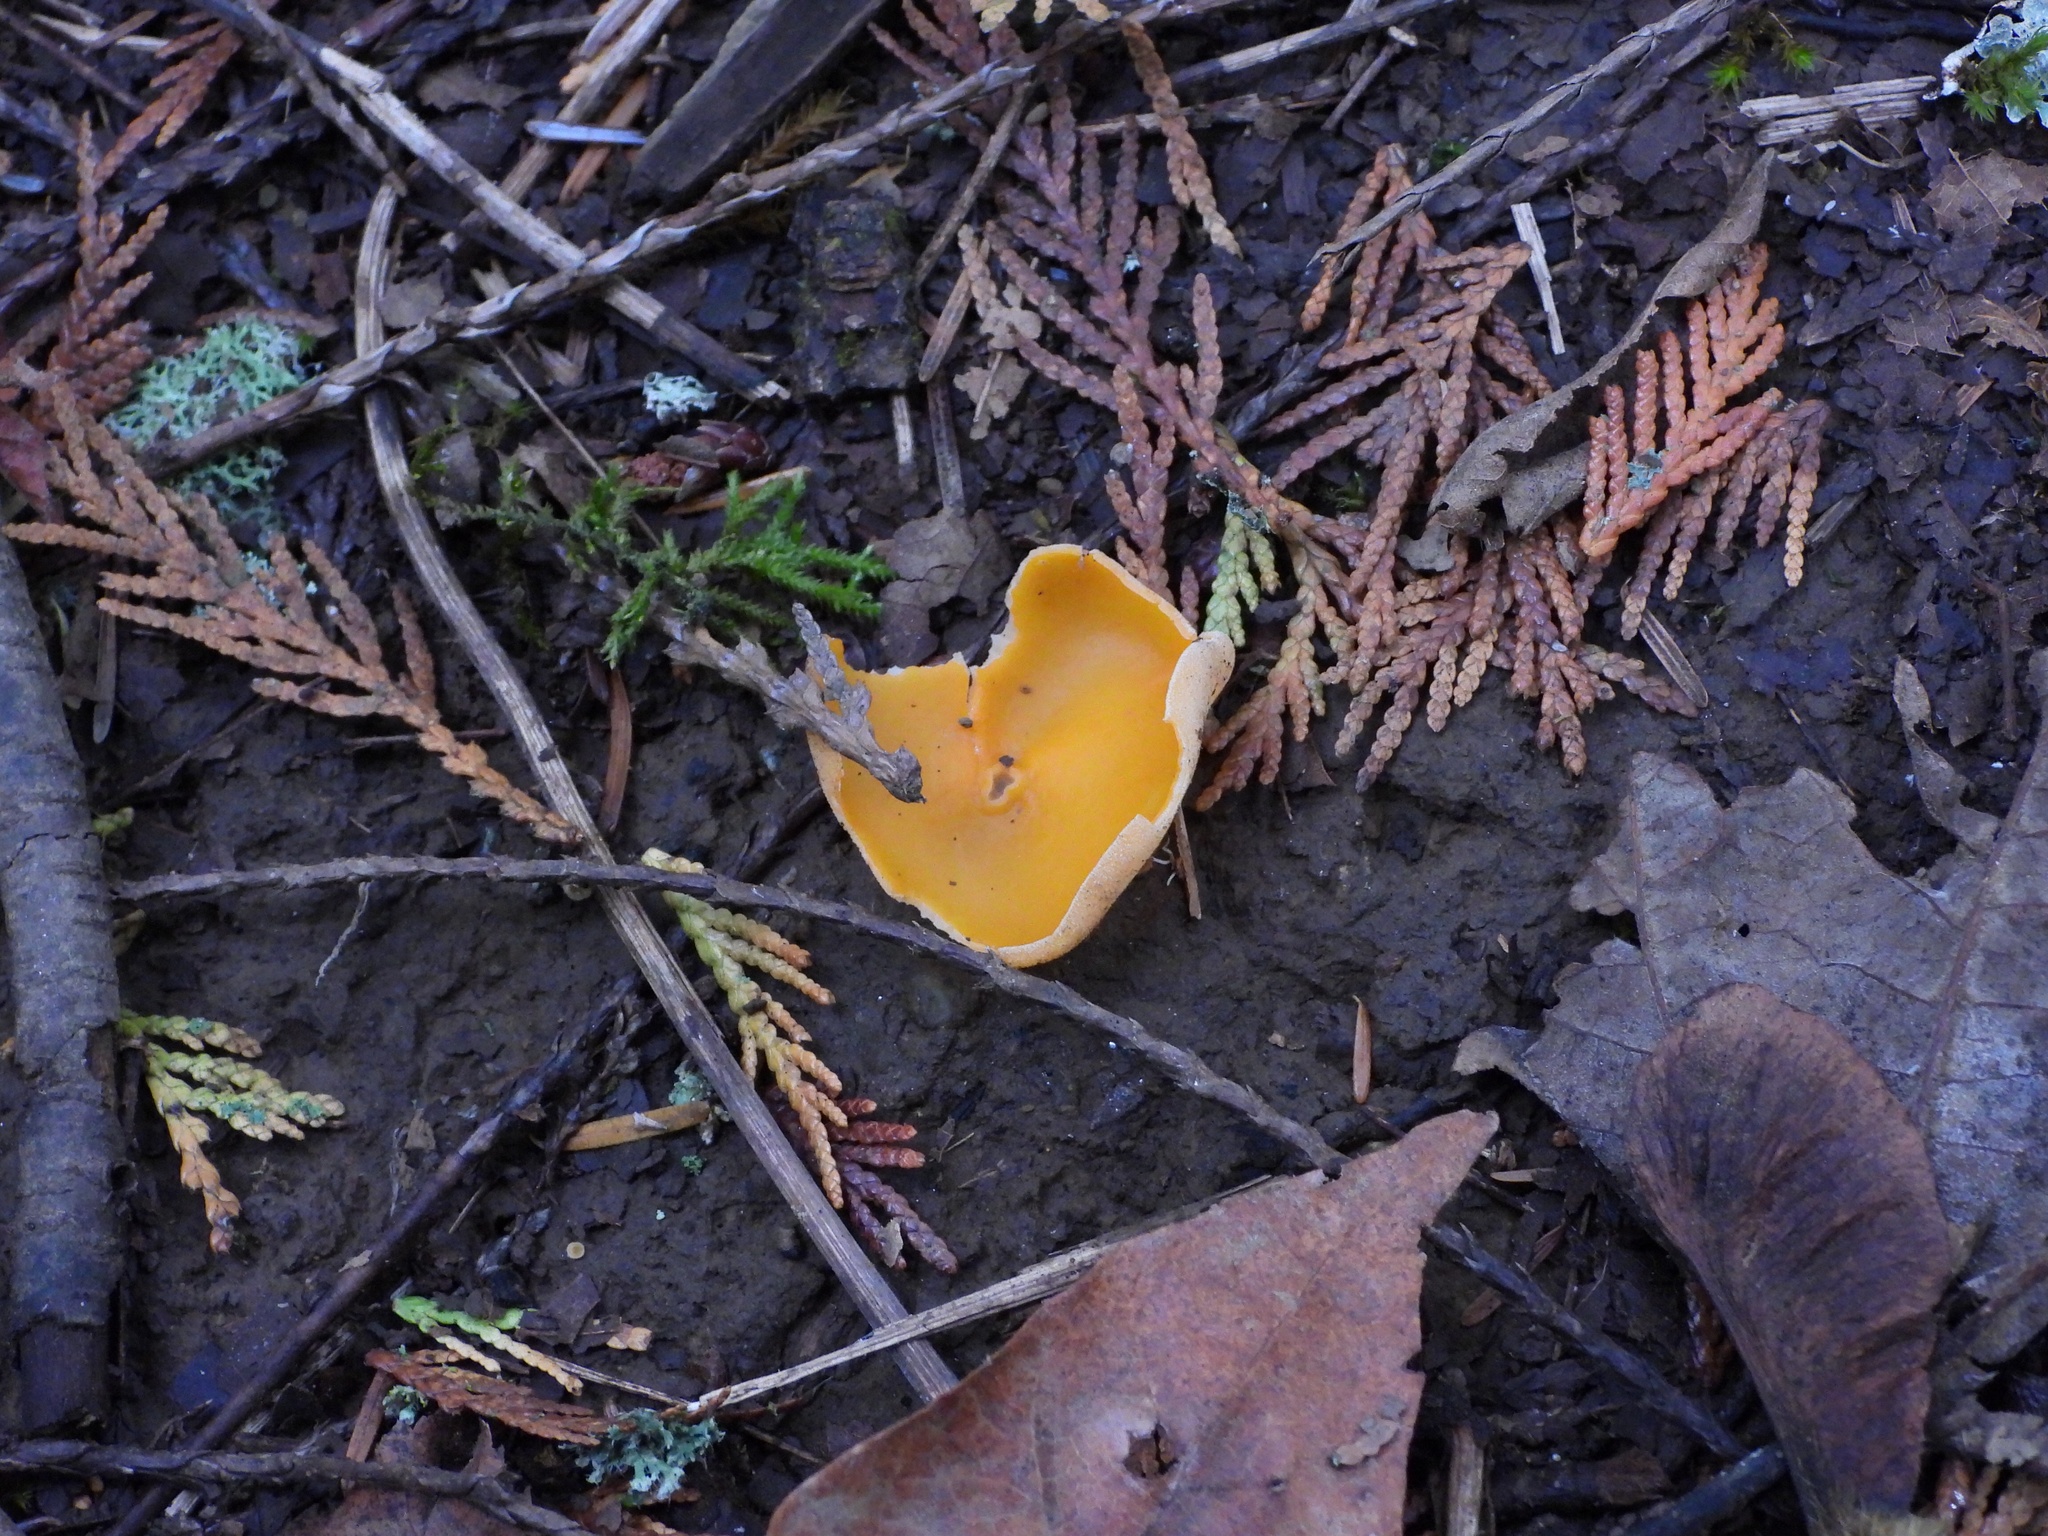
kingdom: Fungi
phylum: Ascomycota
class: Pezizomycetes
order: Pezizales
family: Pyronemataceae
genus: Aleuria
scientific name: Aleuria aurantia
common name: Orange peel fungus
